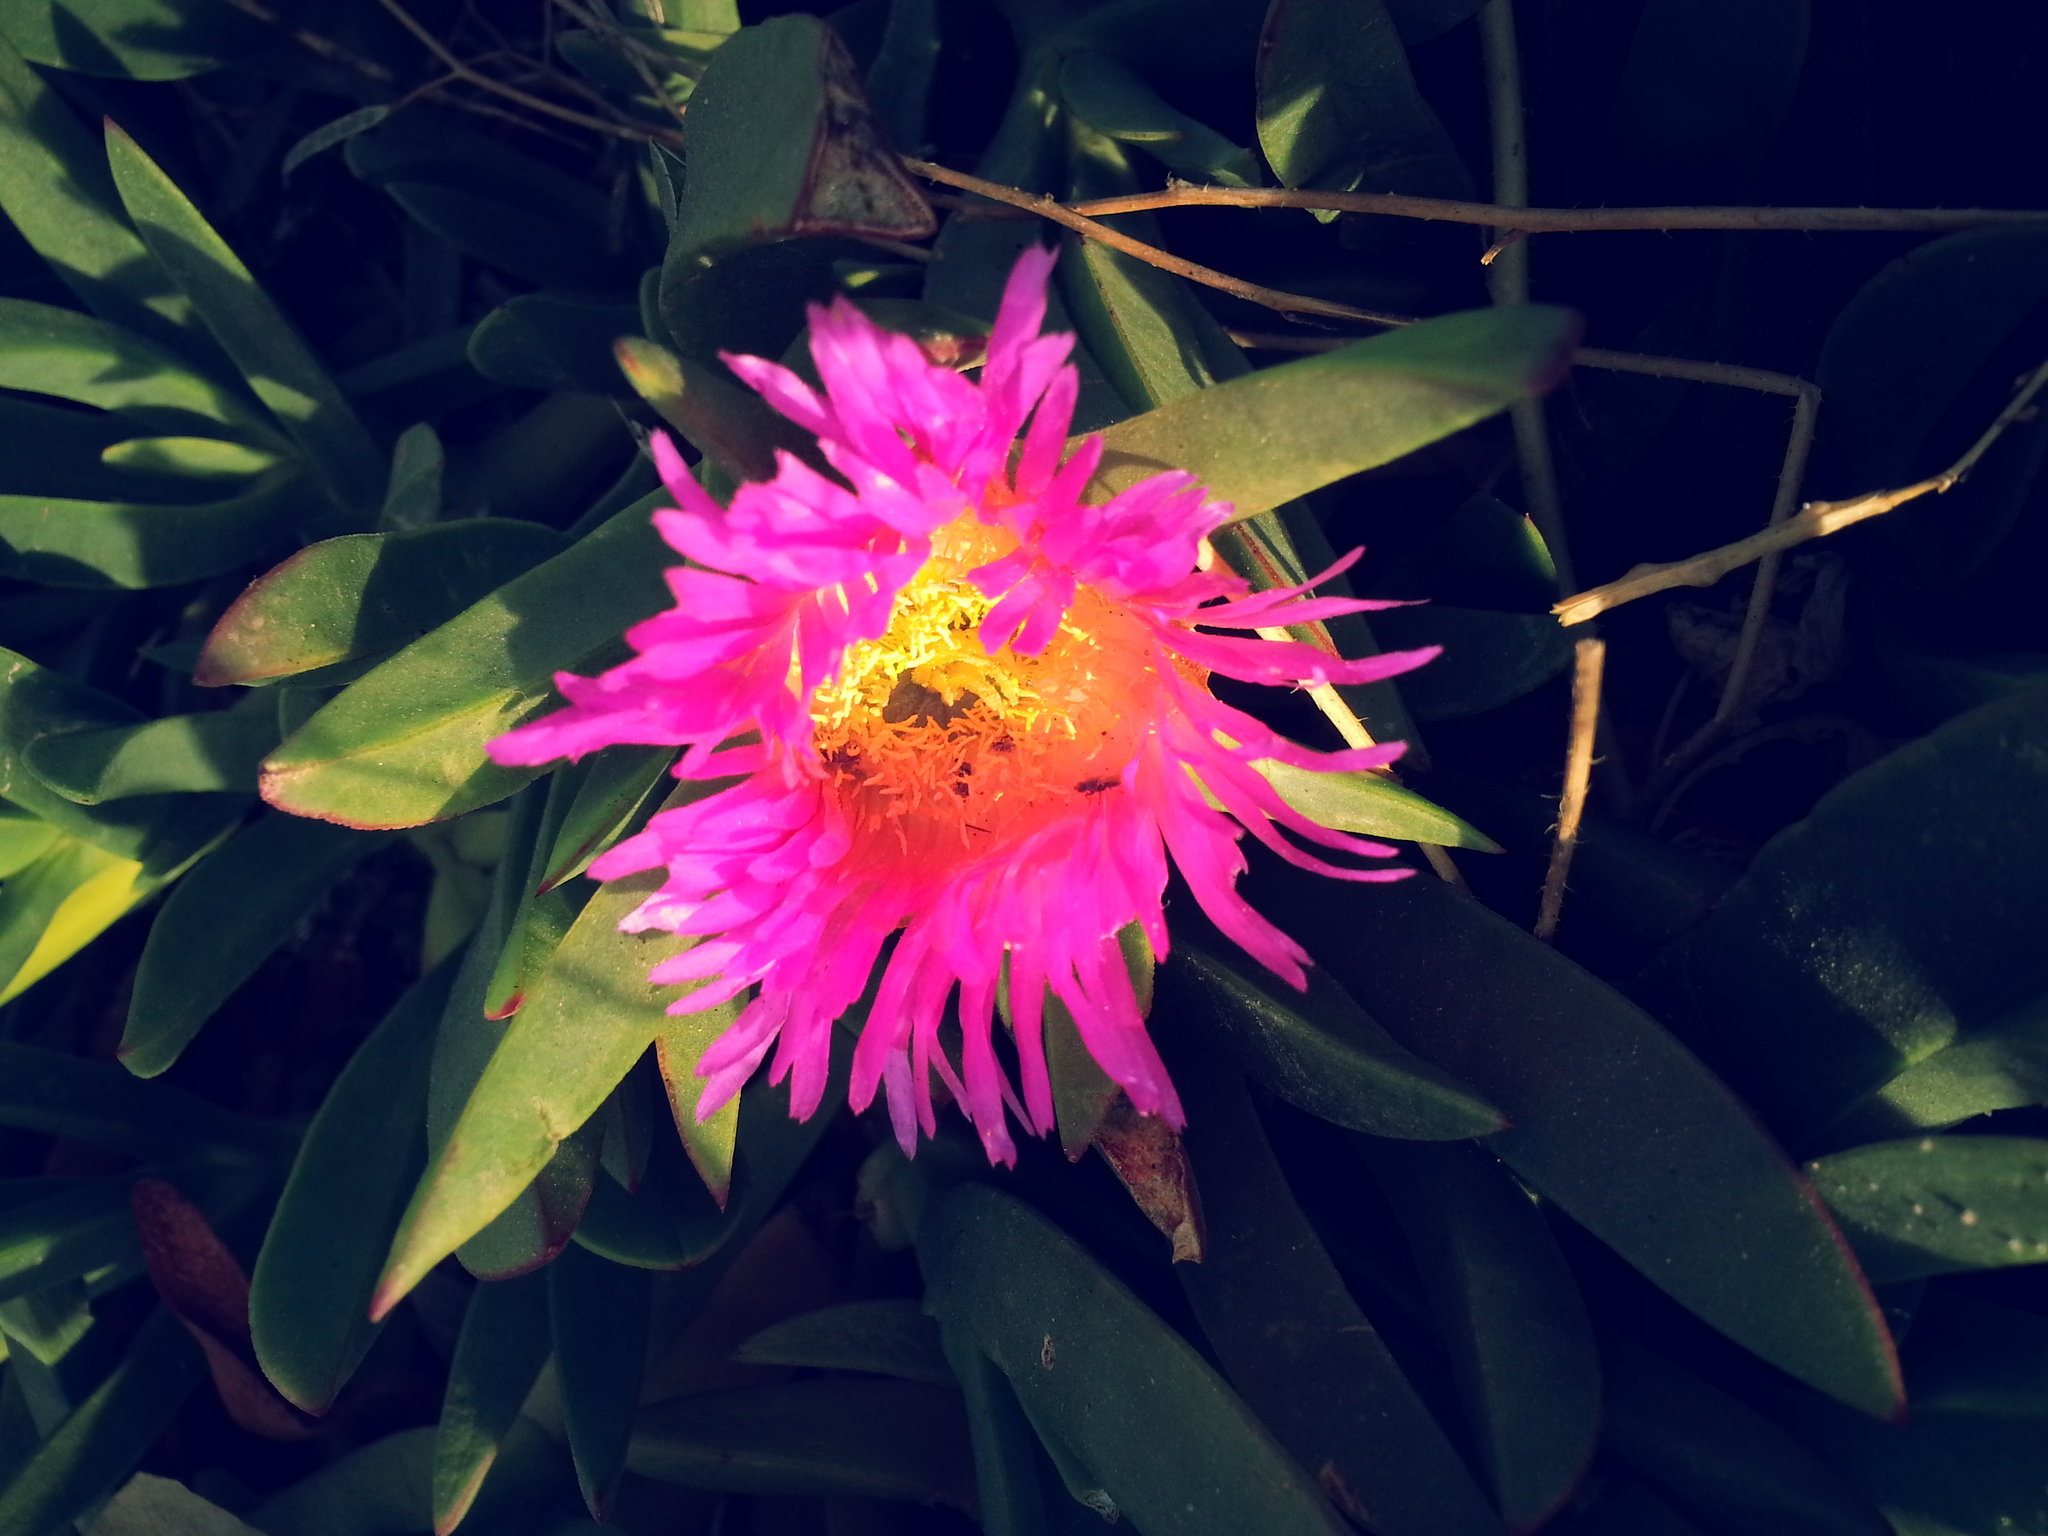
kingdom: Plantae
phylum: Tracheophyta
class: Magnoliopsida
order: Caryophyllales
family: Aizoaceae
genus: Carpobrotus
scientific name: Carpobrotus chilensis
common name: Sea fig
